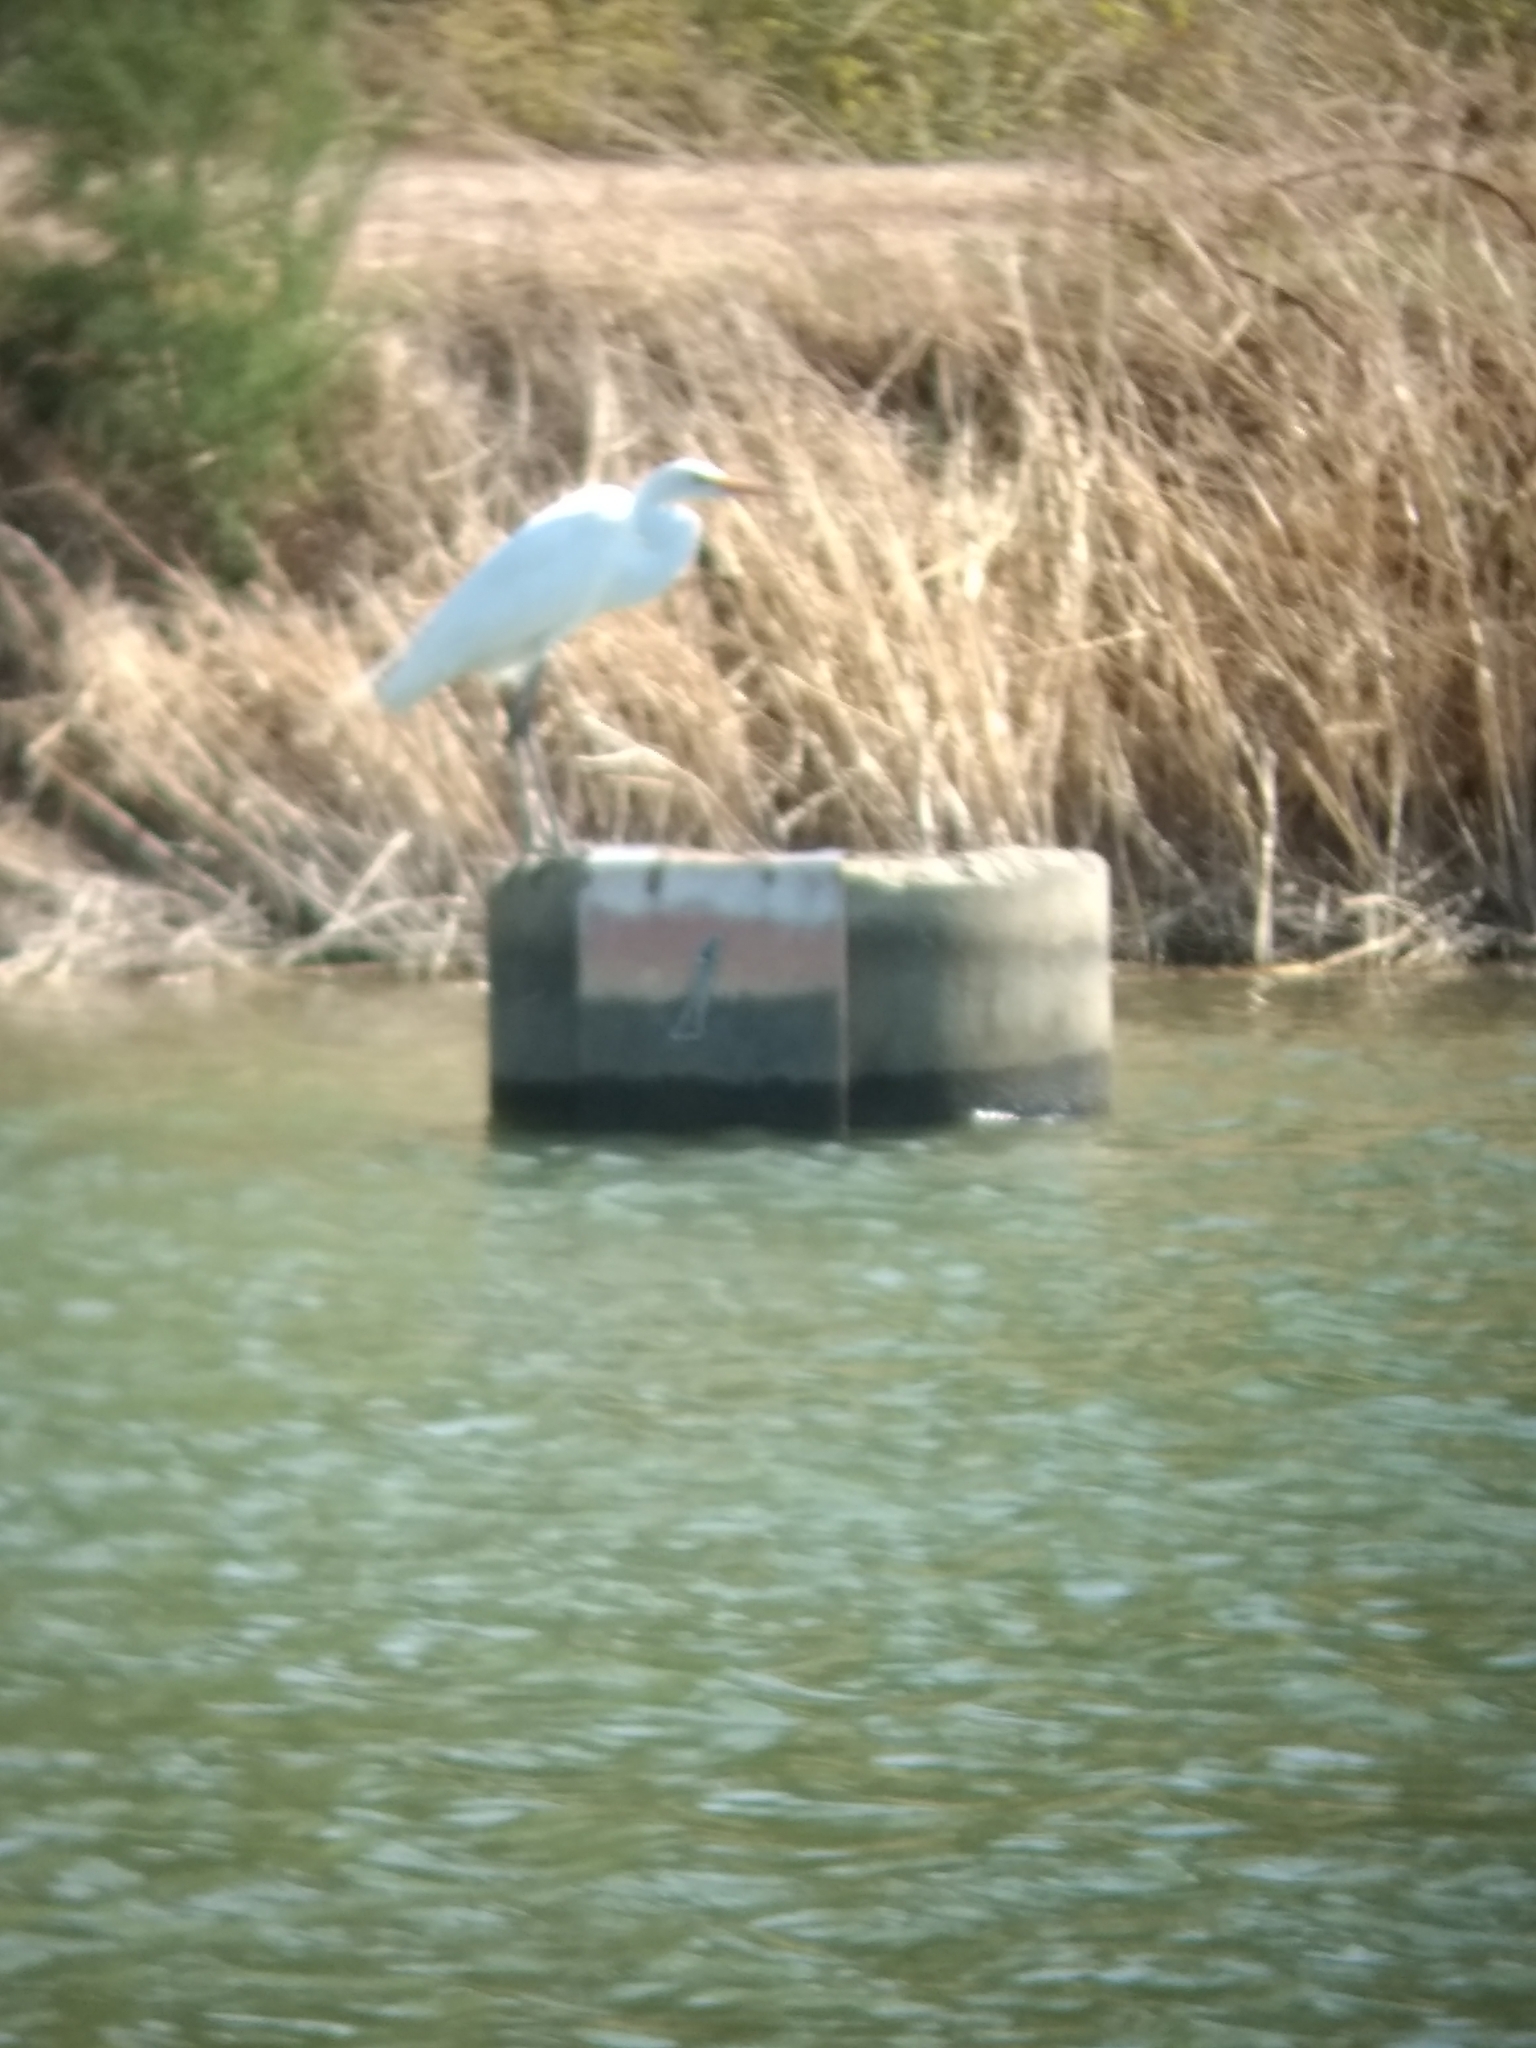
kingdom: Animalia
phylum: Chordata
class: Aves
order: Pelecaniformes
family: Ardeidae
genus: Ardea
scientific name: Ardea alba
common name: Great egret
